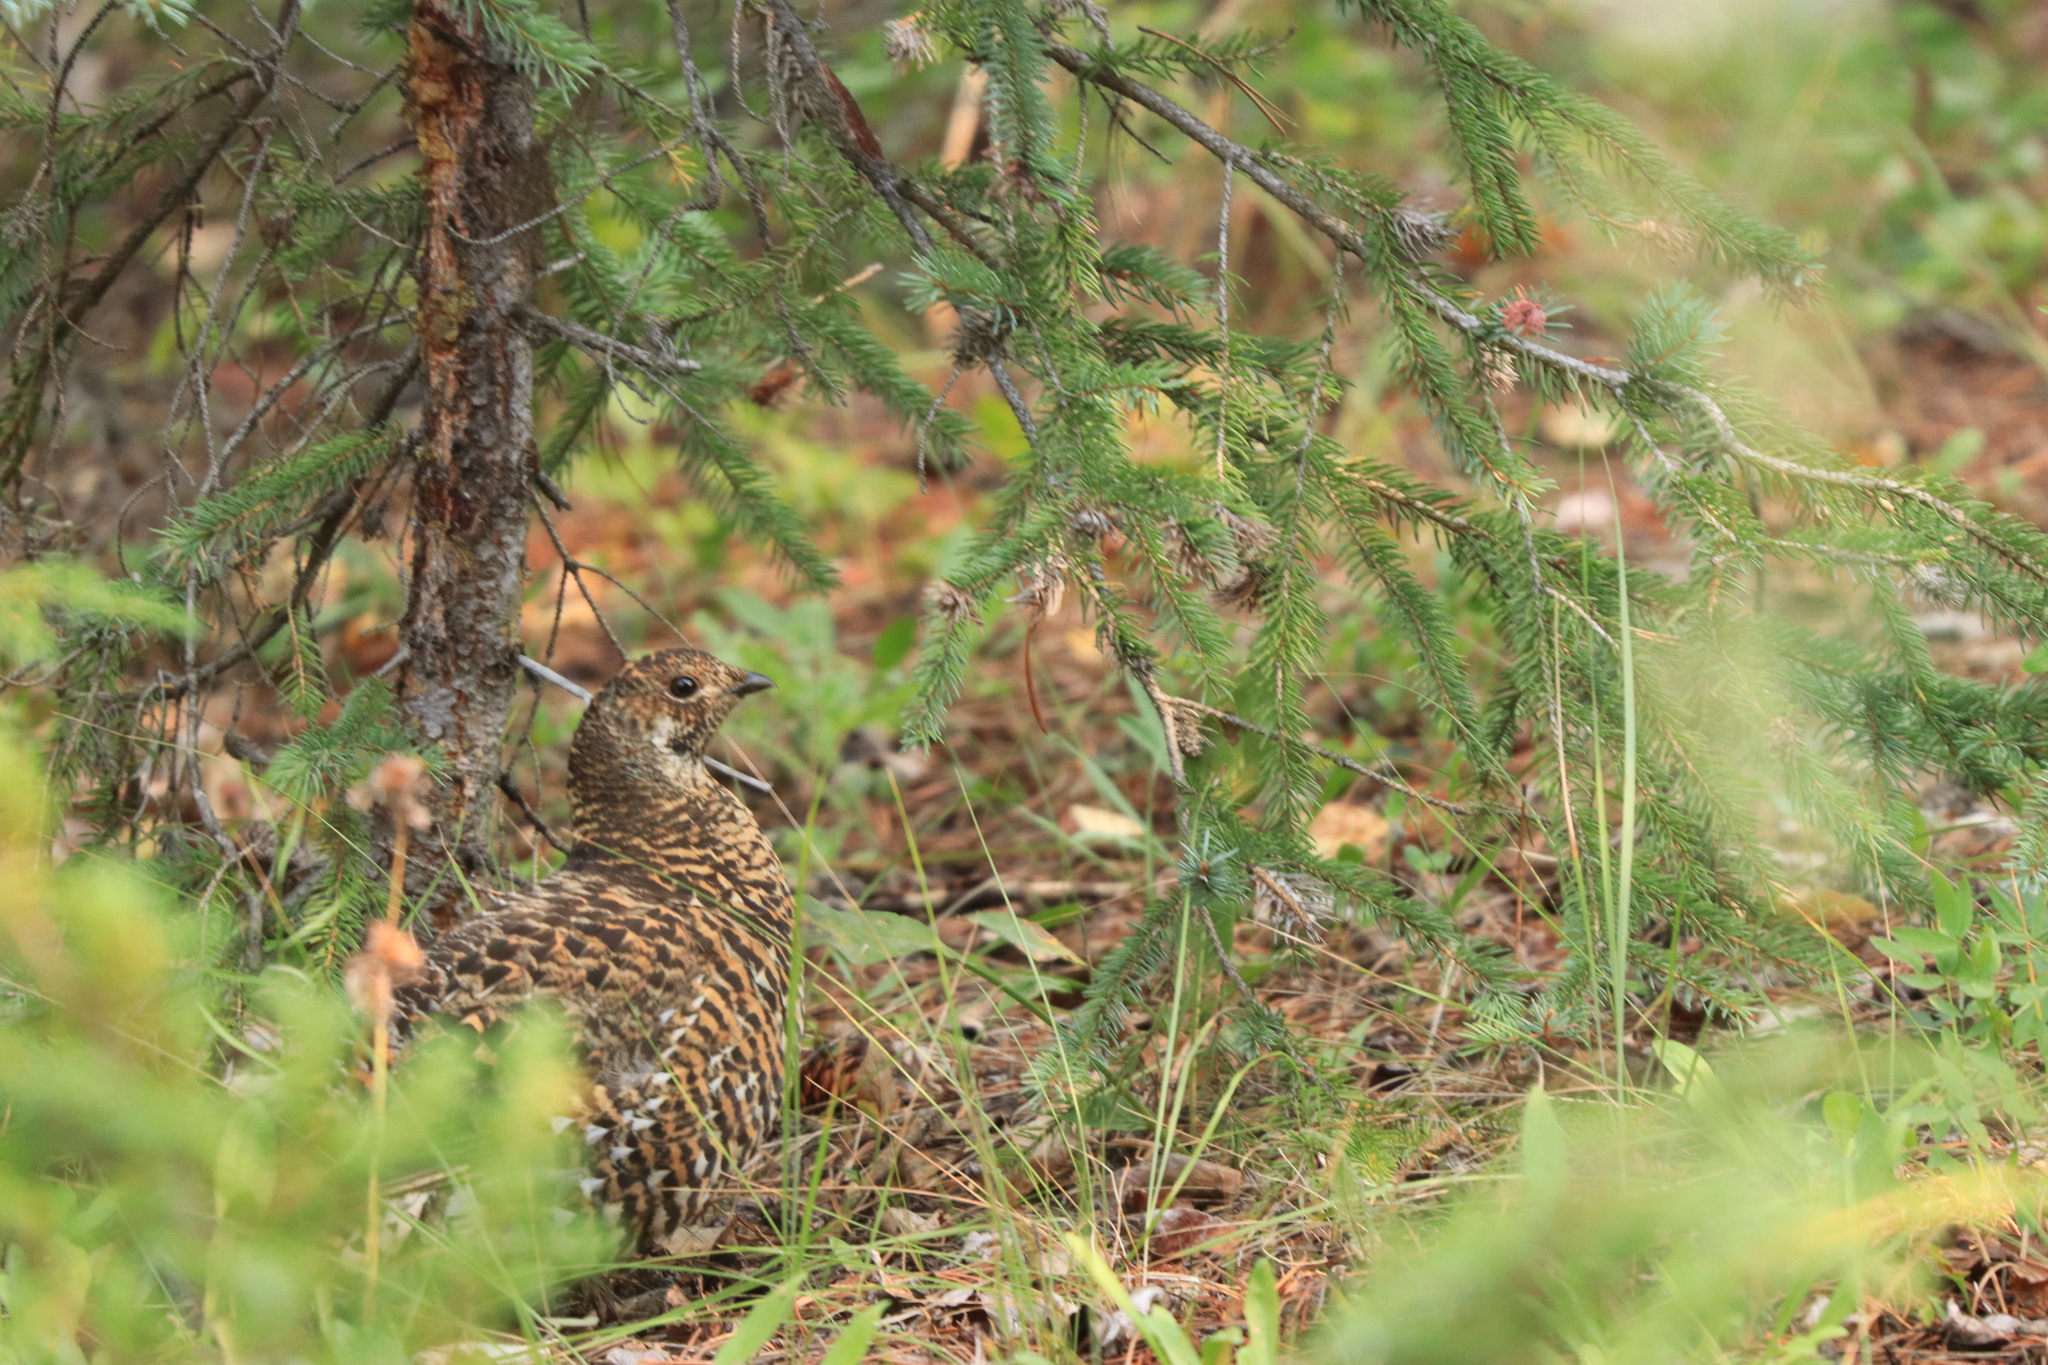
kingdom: Animalia
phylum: Chordata
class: Aves
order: Galliformes
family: Phasianidae
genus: Canachites
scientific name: Canachites canadensis
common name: Spruce grouse
